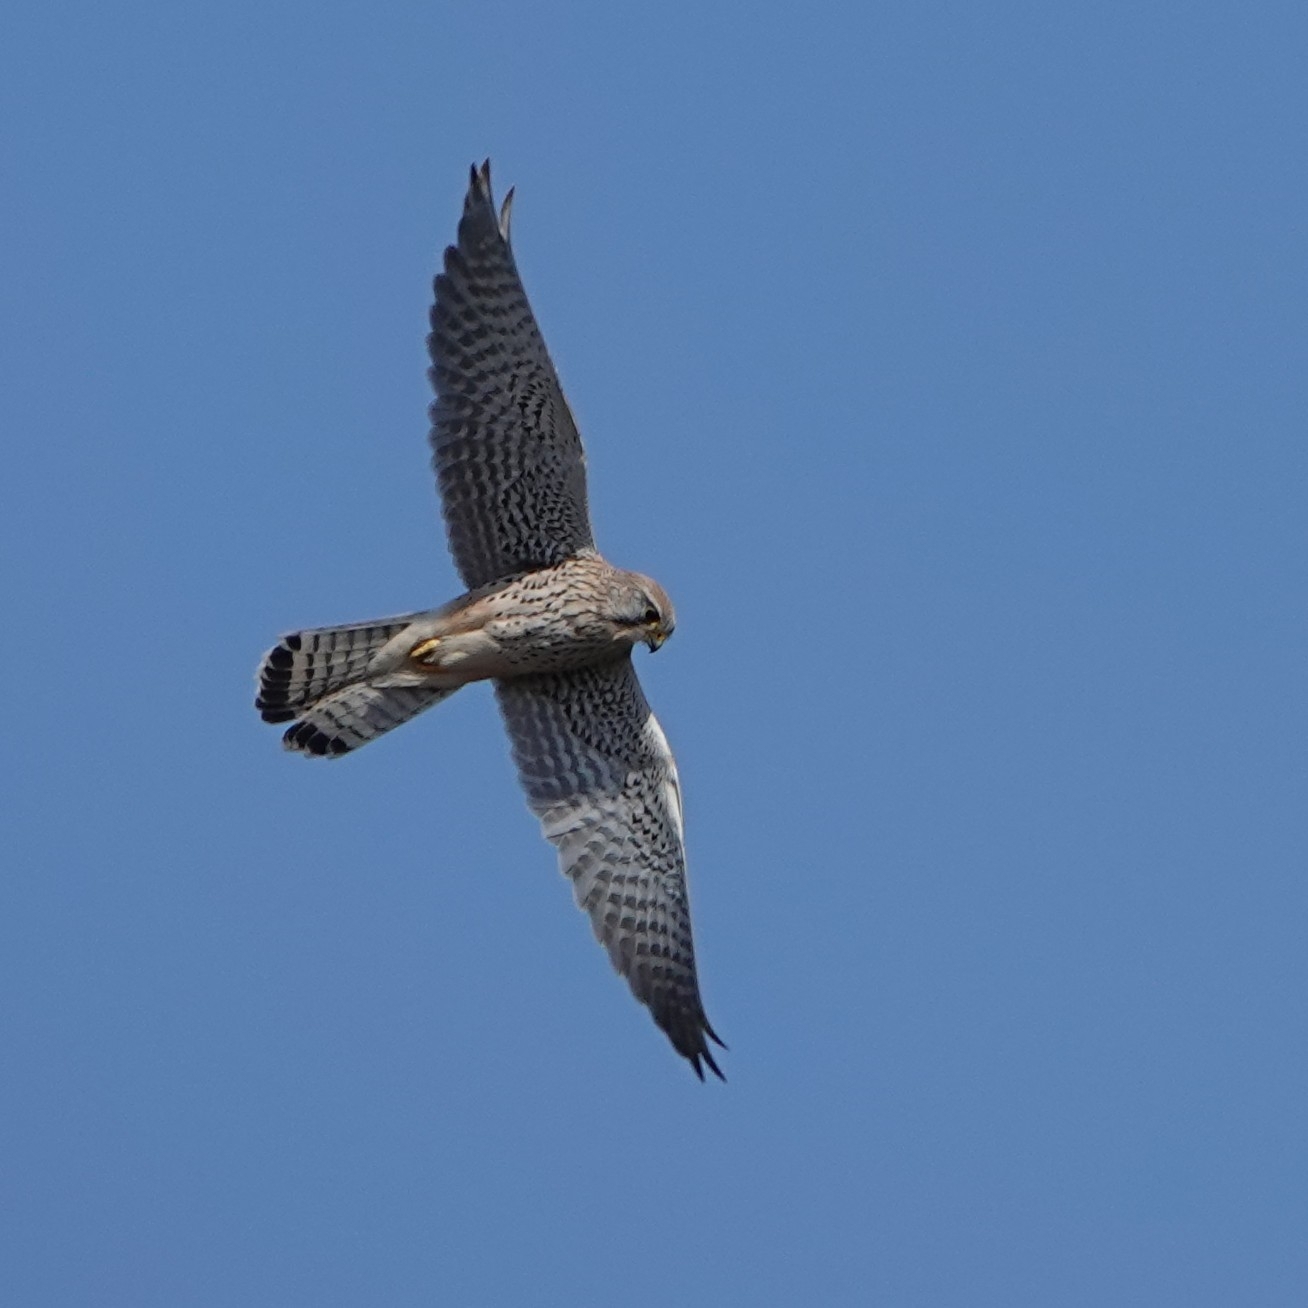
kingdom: Animalia
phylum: Chordata
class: Aves
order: Falconiformes
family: Falconidae
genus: Falco
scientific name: Falco tinnunculus
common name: Common kestrel
